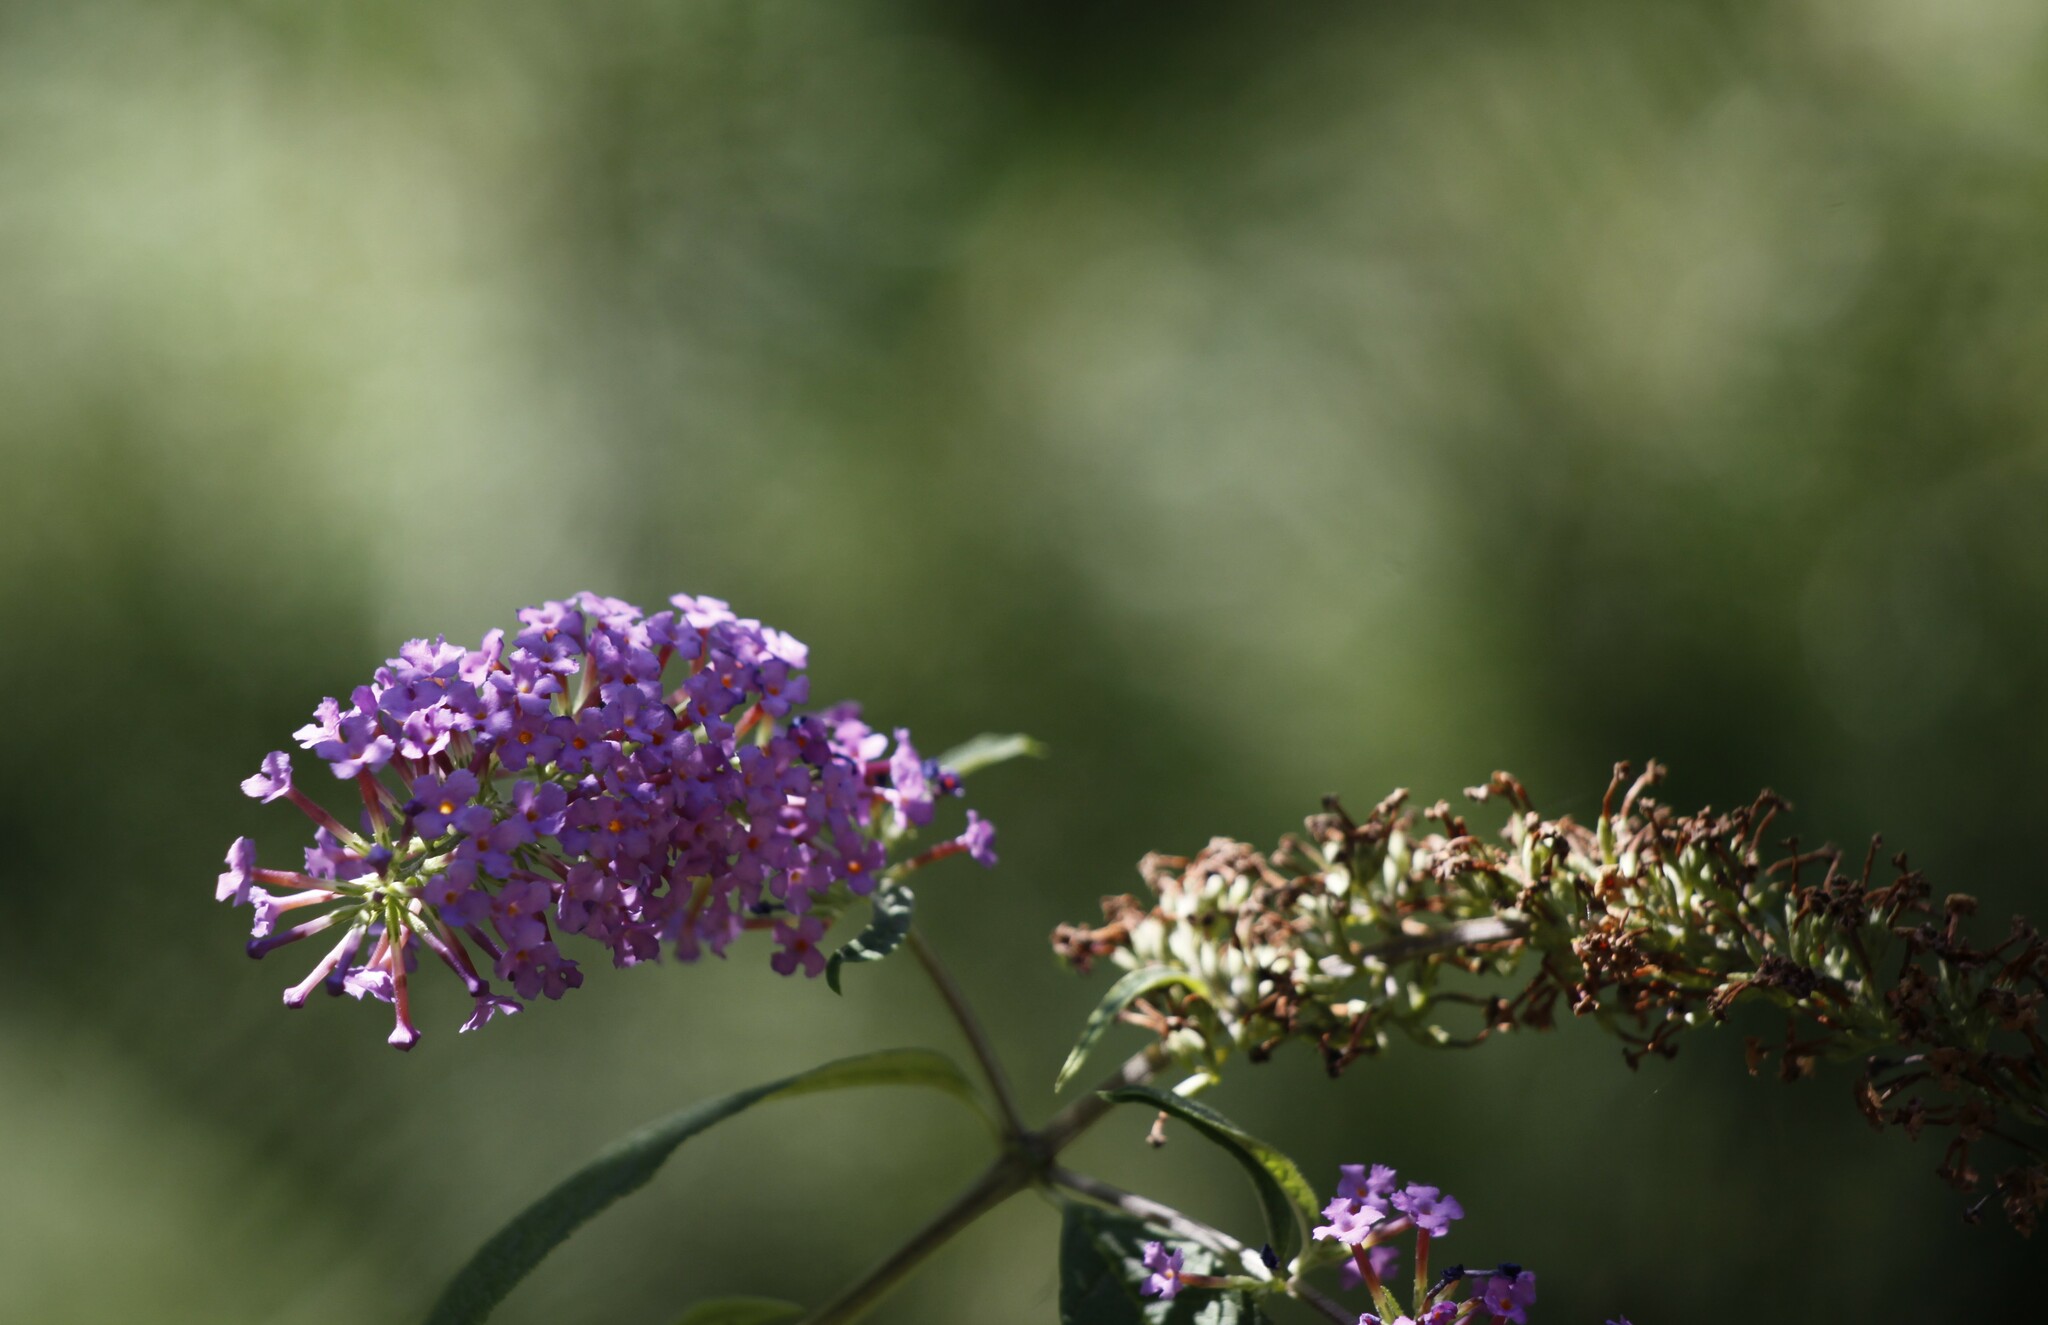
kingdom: Plantae
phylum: Tracheophyta
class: Magnoliopsida
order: Lamiales
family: Scrophulariaceae
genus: Buddleja
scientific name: Buddleja davidii
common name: Butterfly-bush
